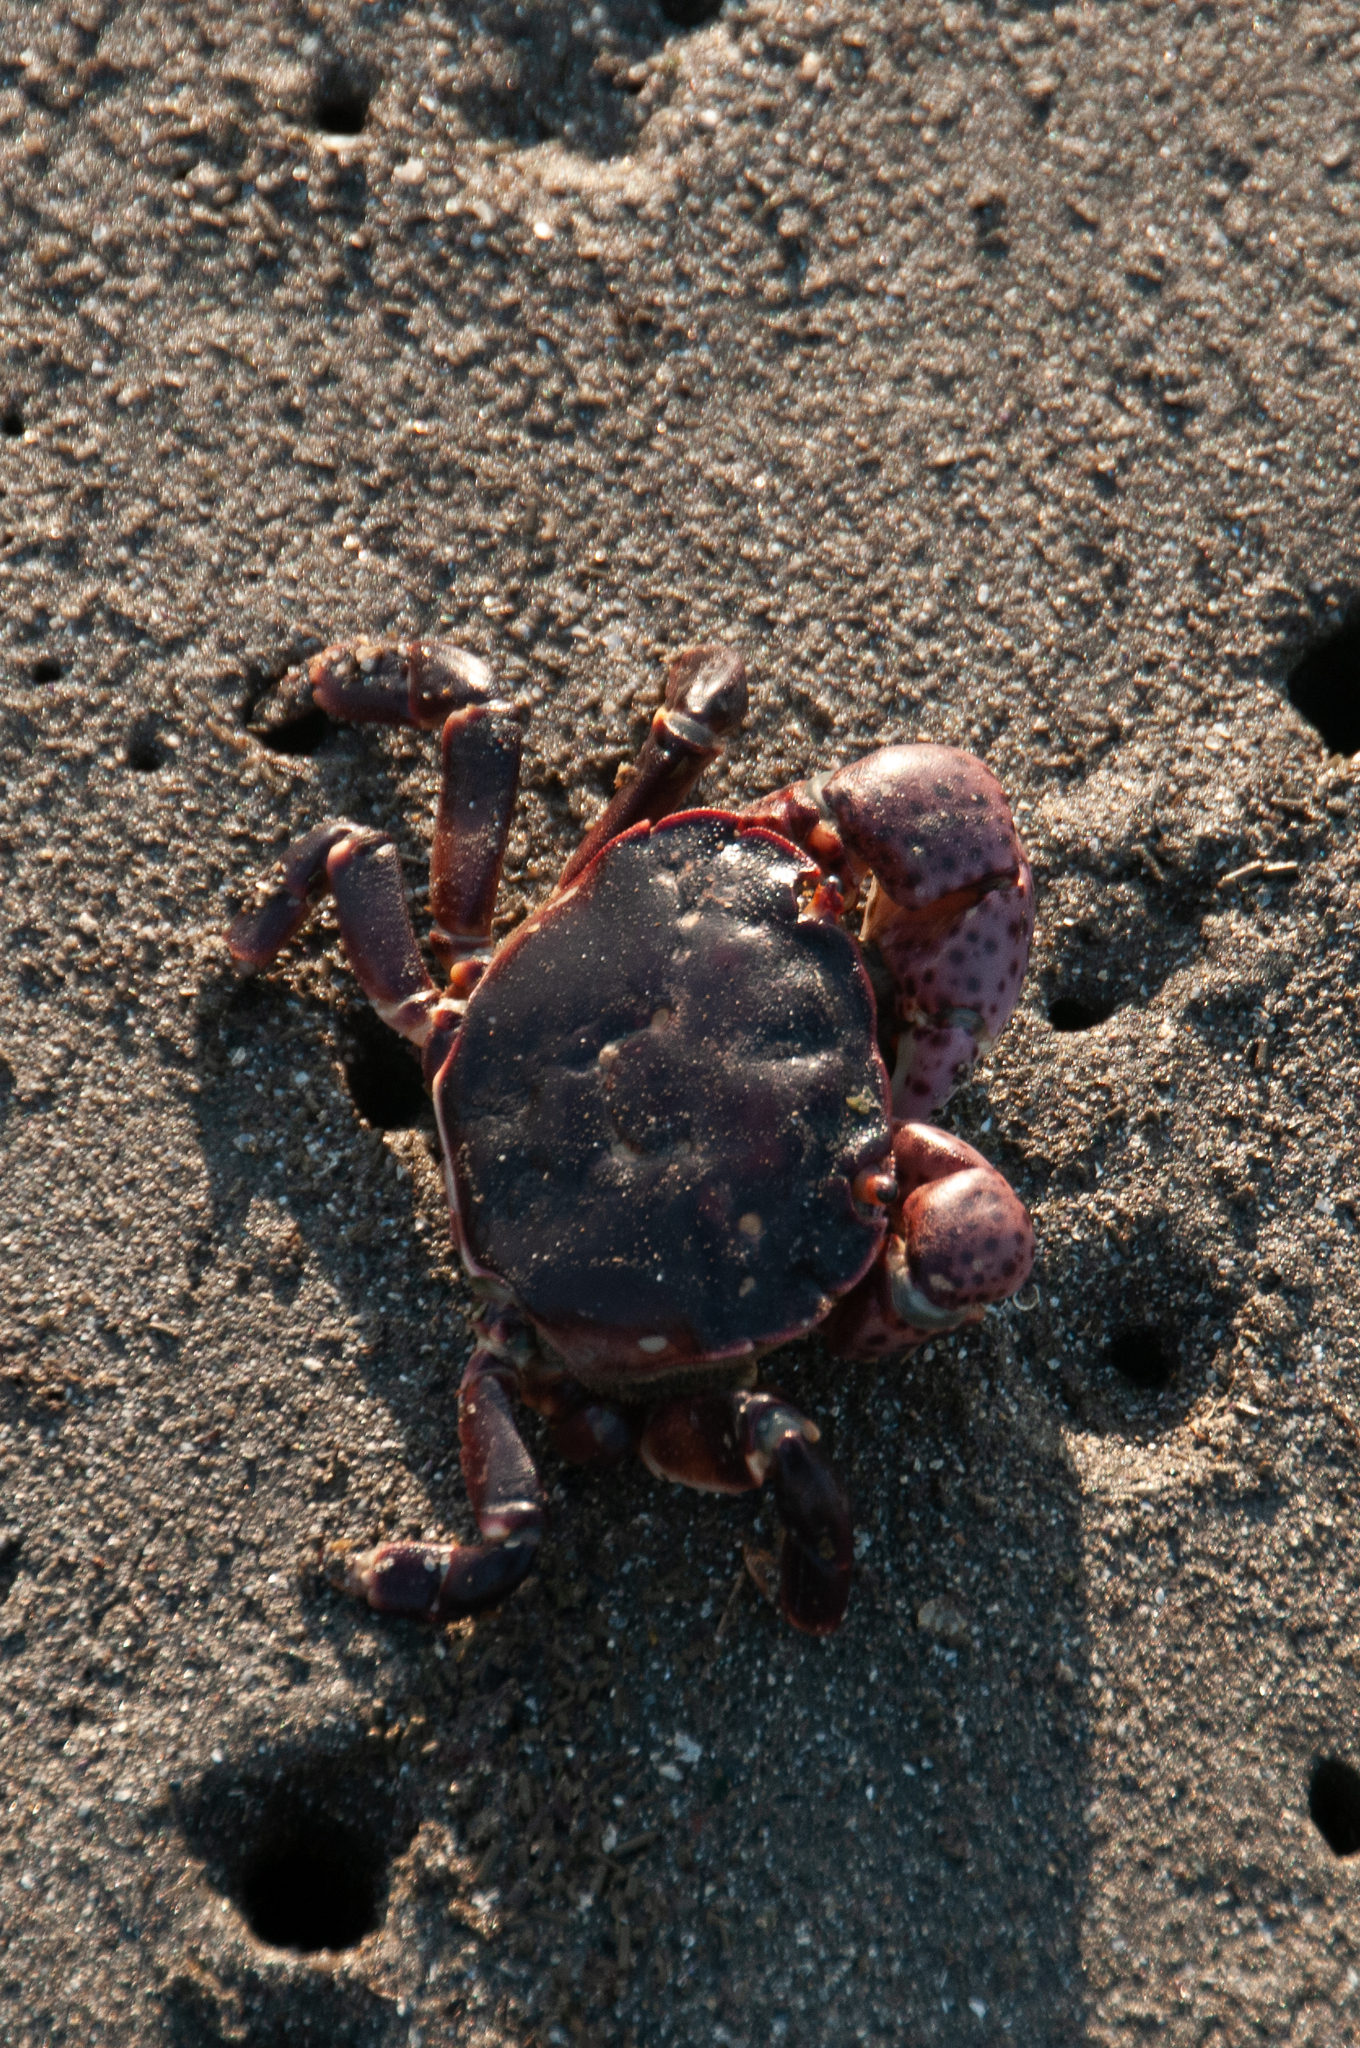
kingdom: Animalia
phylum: Arthropoda
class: Malacostraca
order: Decapoda
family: Varunidae
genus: Hemigrapsus
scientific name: Hemigrapsus nudus
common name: Purple shore crab
